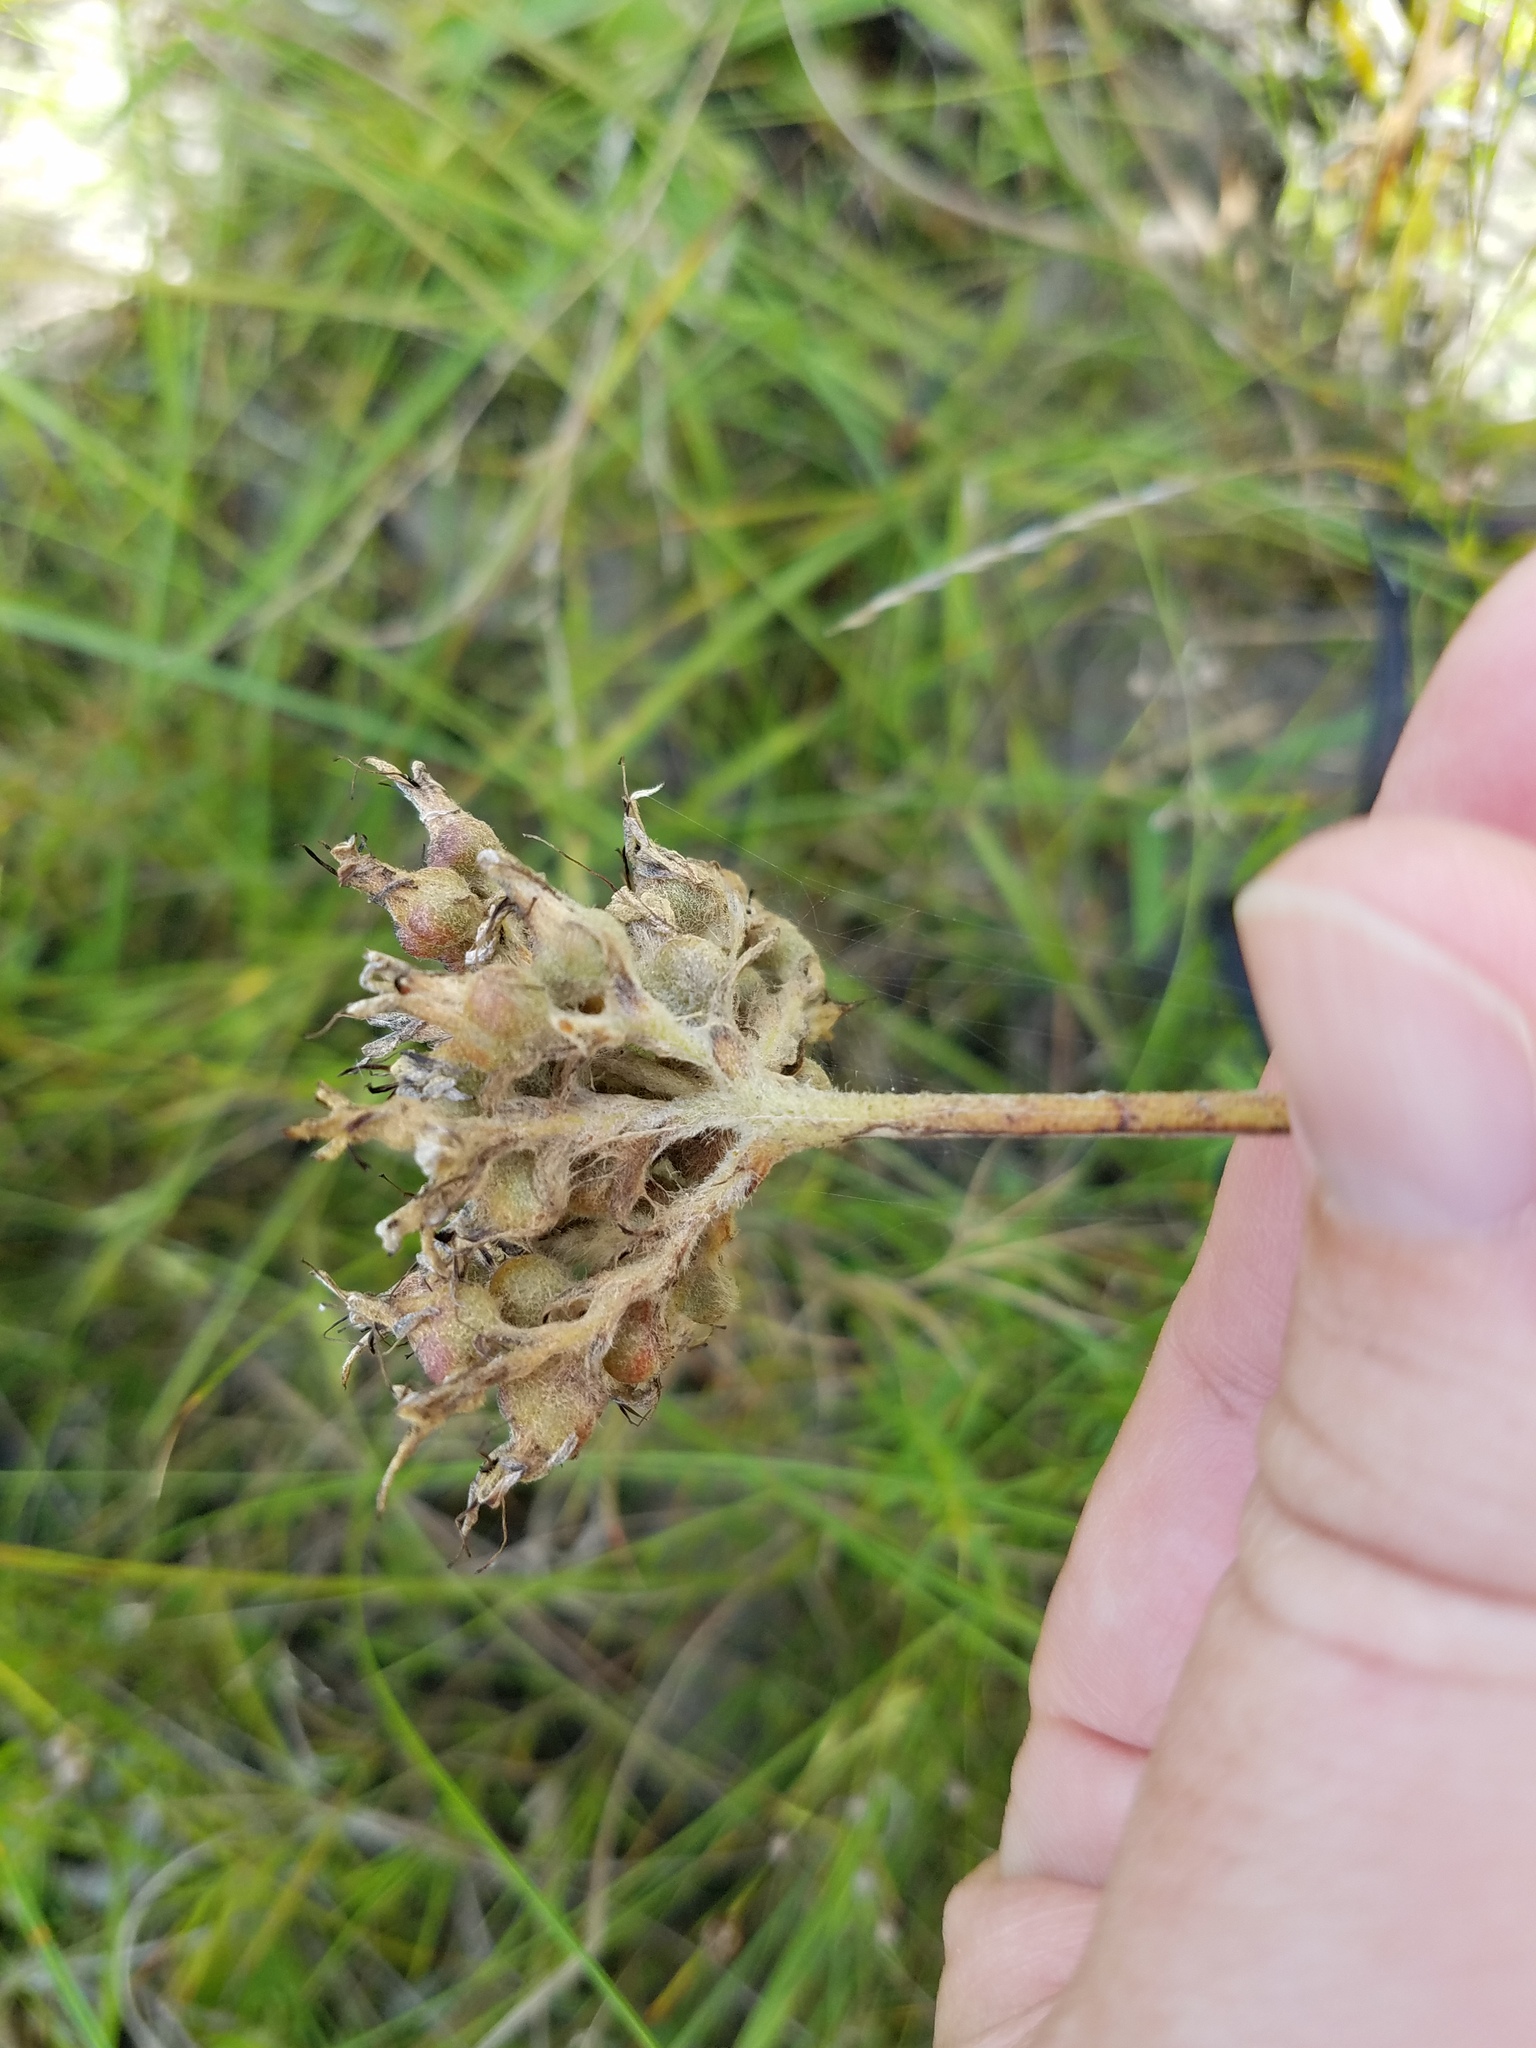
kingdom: Plantae
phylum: Tracheophyta
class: Liliopsida
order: Commelinales
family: Haemodoraceae
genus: Lachnanthes
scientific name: Lachnanthes caroliana
